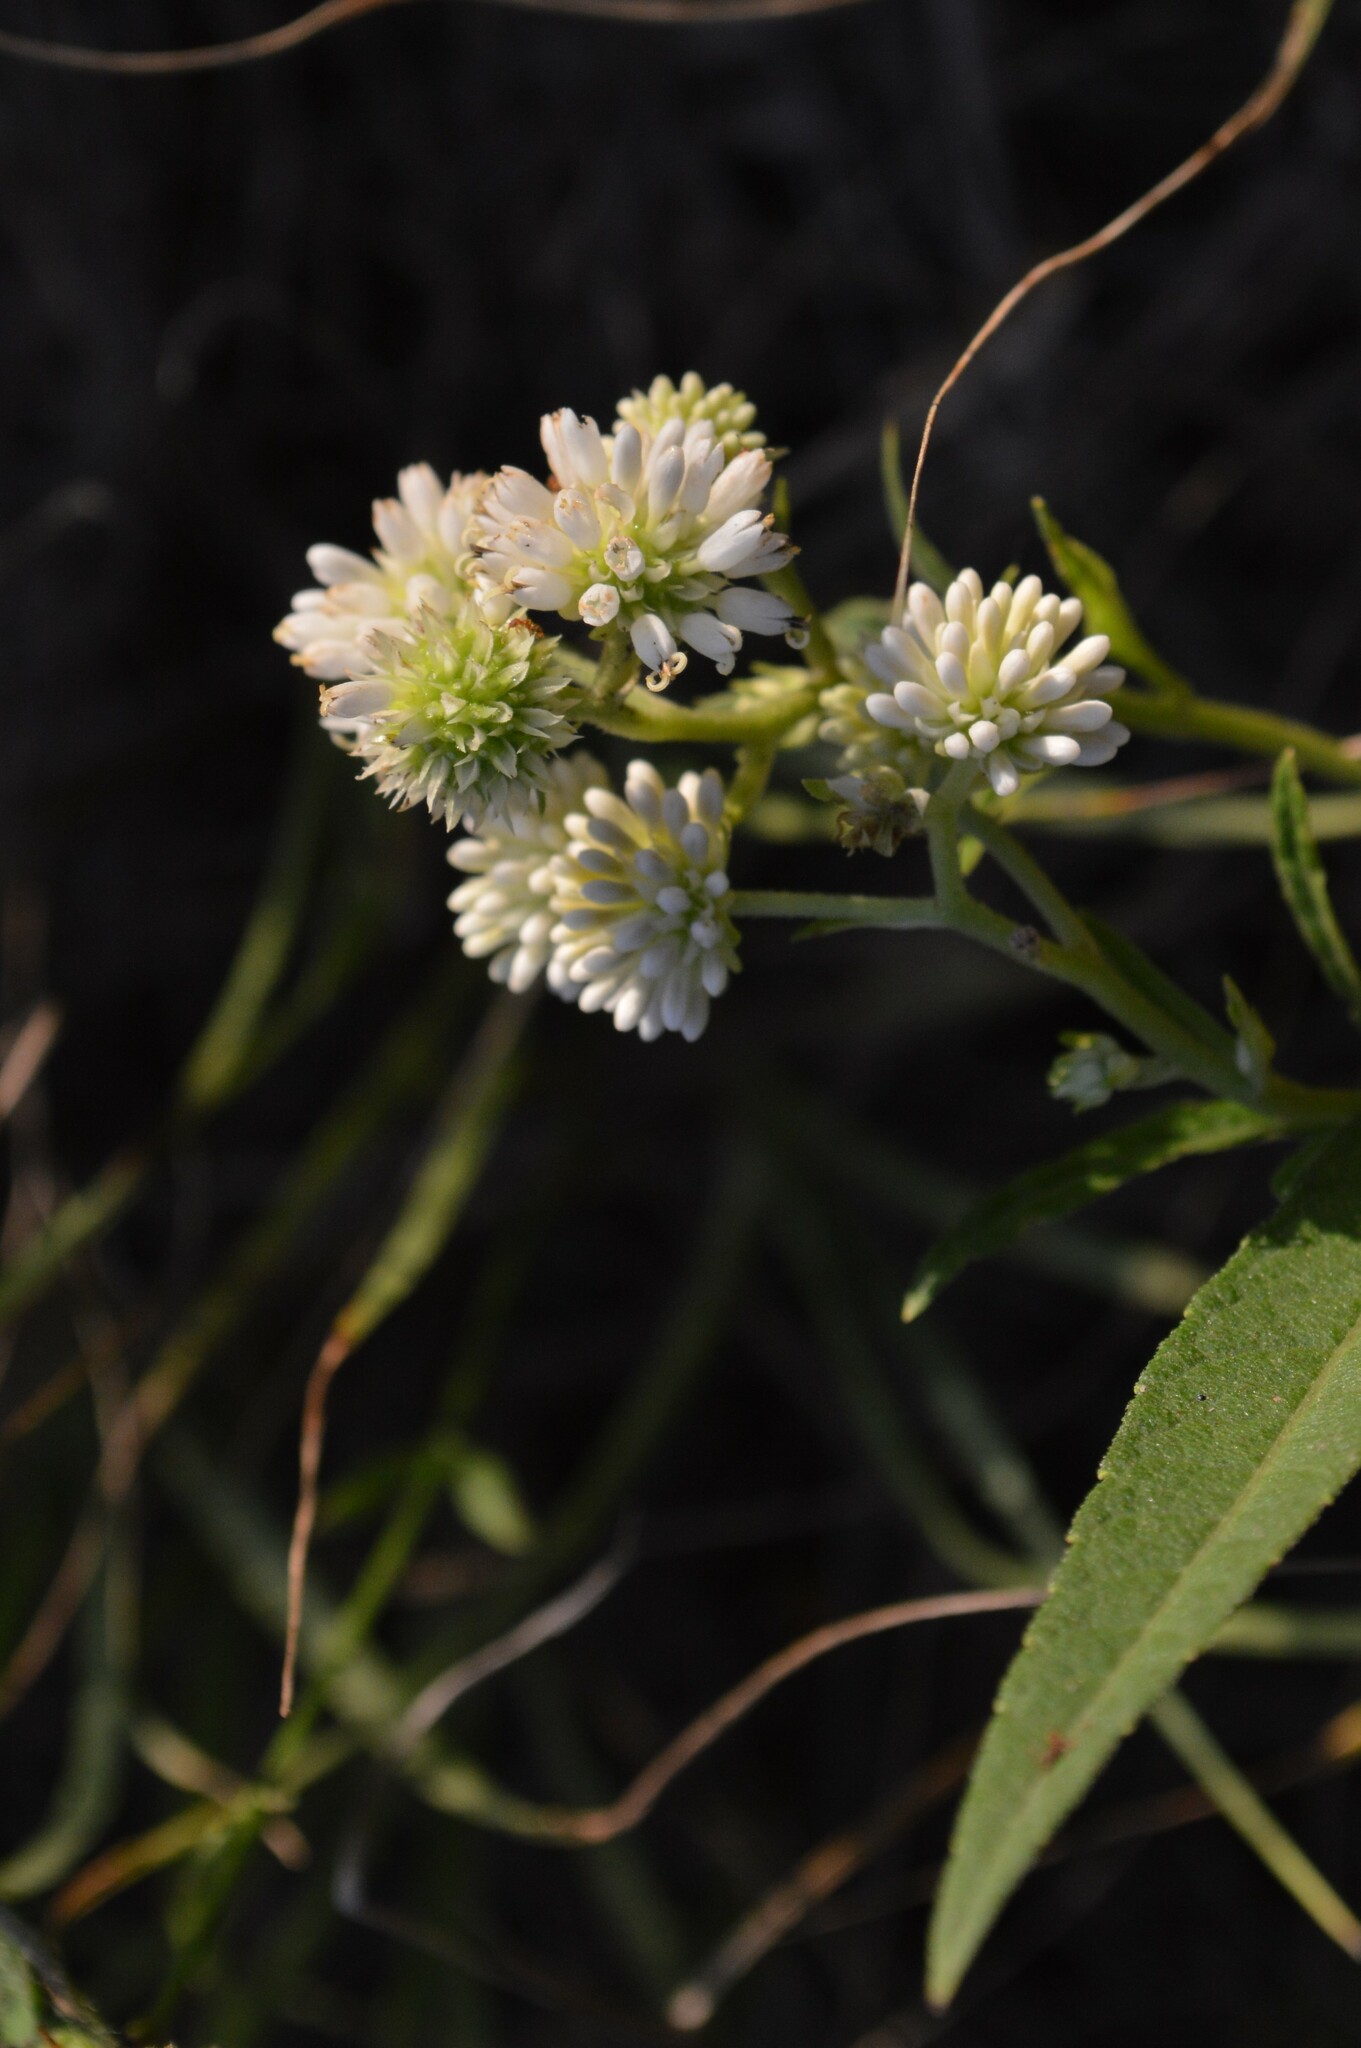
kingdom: Plantae
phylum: Tracheophyta
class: Magnoliopsida
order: Asterales
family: Asteraceae
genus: Verbesina
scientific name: Verbesina walteri
